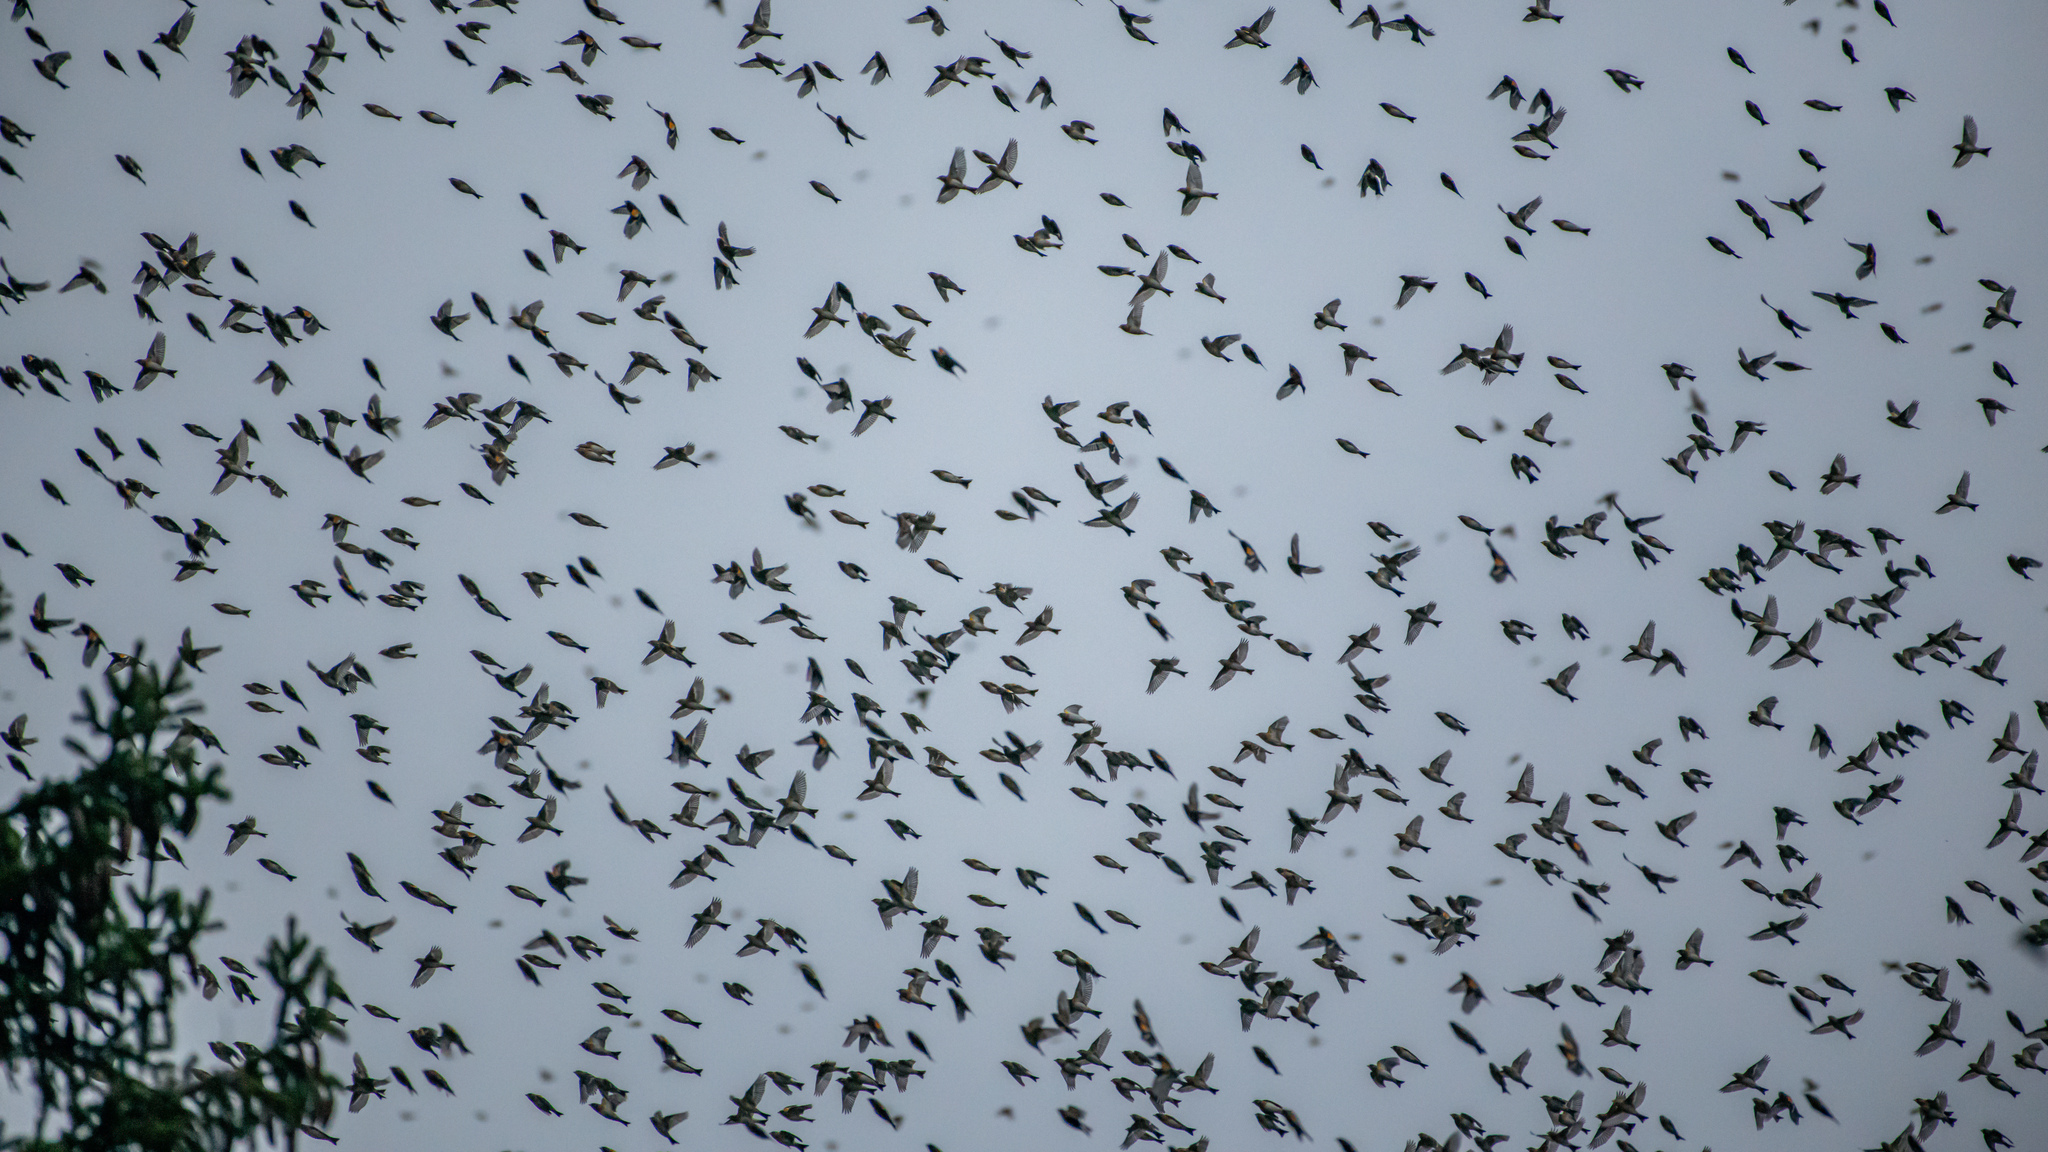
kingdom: Animalia
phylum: Chordata
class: Aves
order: Passeriformes
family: Fringillidae
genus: Fringilla
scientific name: Fringilla montifringilla
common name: Brambling
